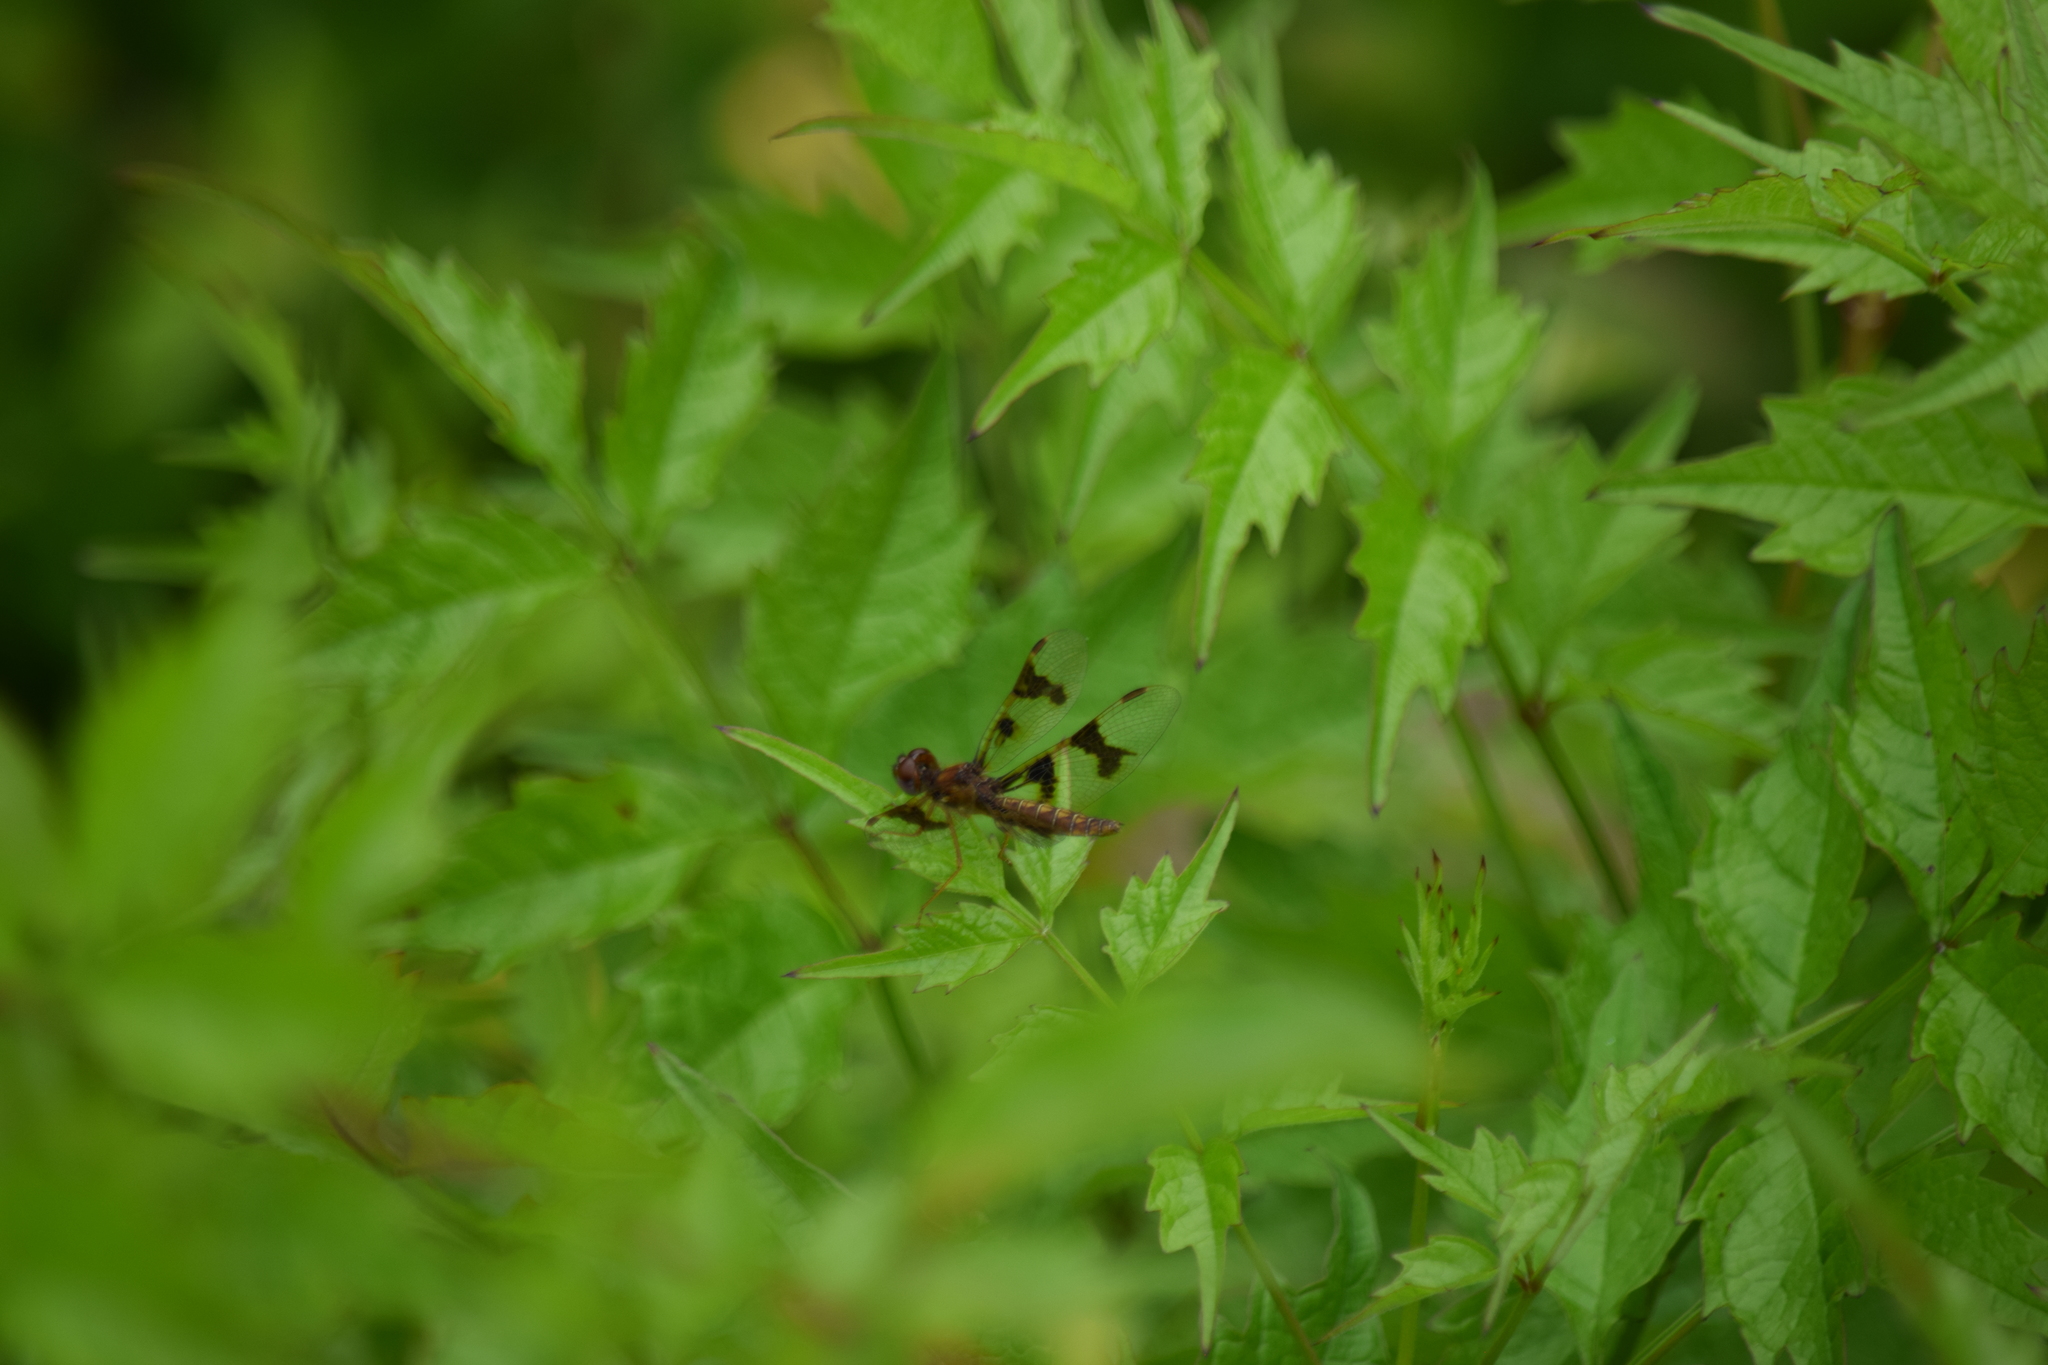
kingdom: Animalia
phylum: Arthropoda
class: Insecta
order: Odonata
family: Libellulidae
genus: Perithemis
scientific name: Perithemis tenera
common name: Eastern amberwing
